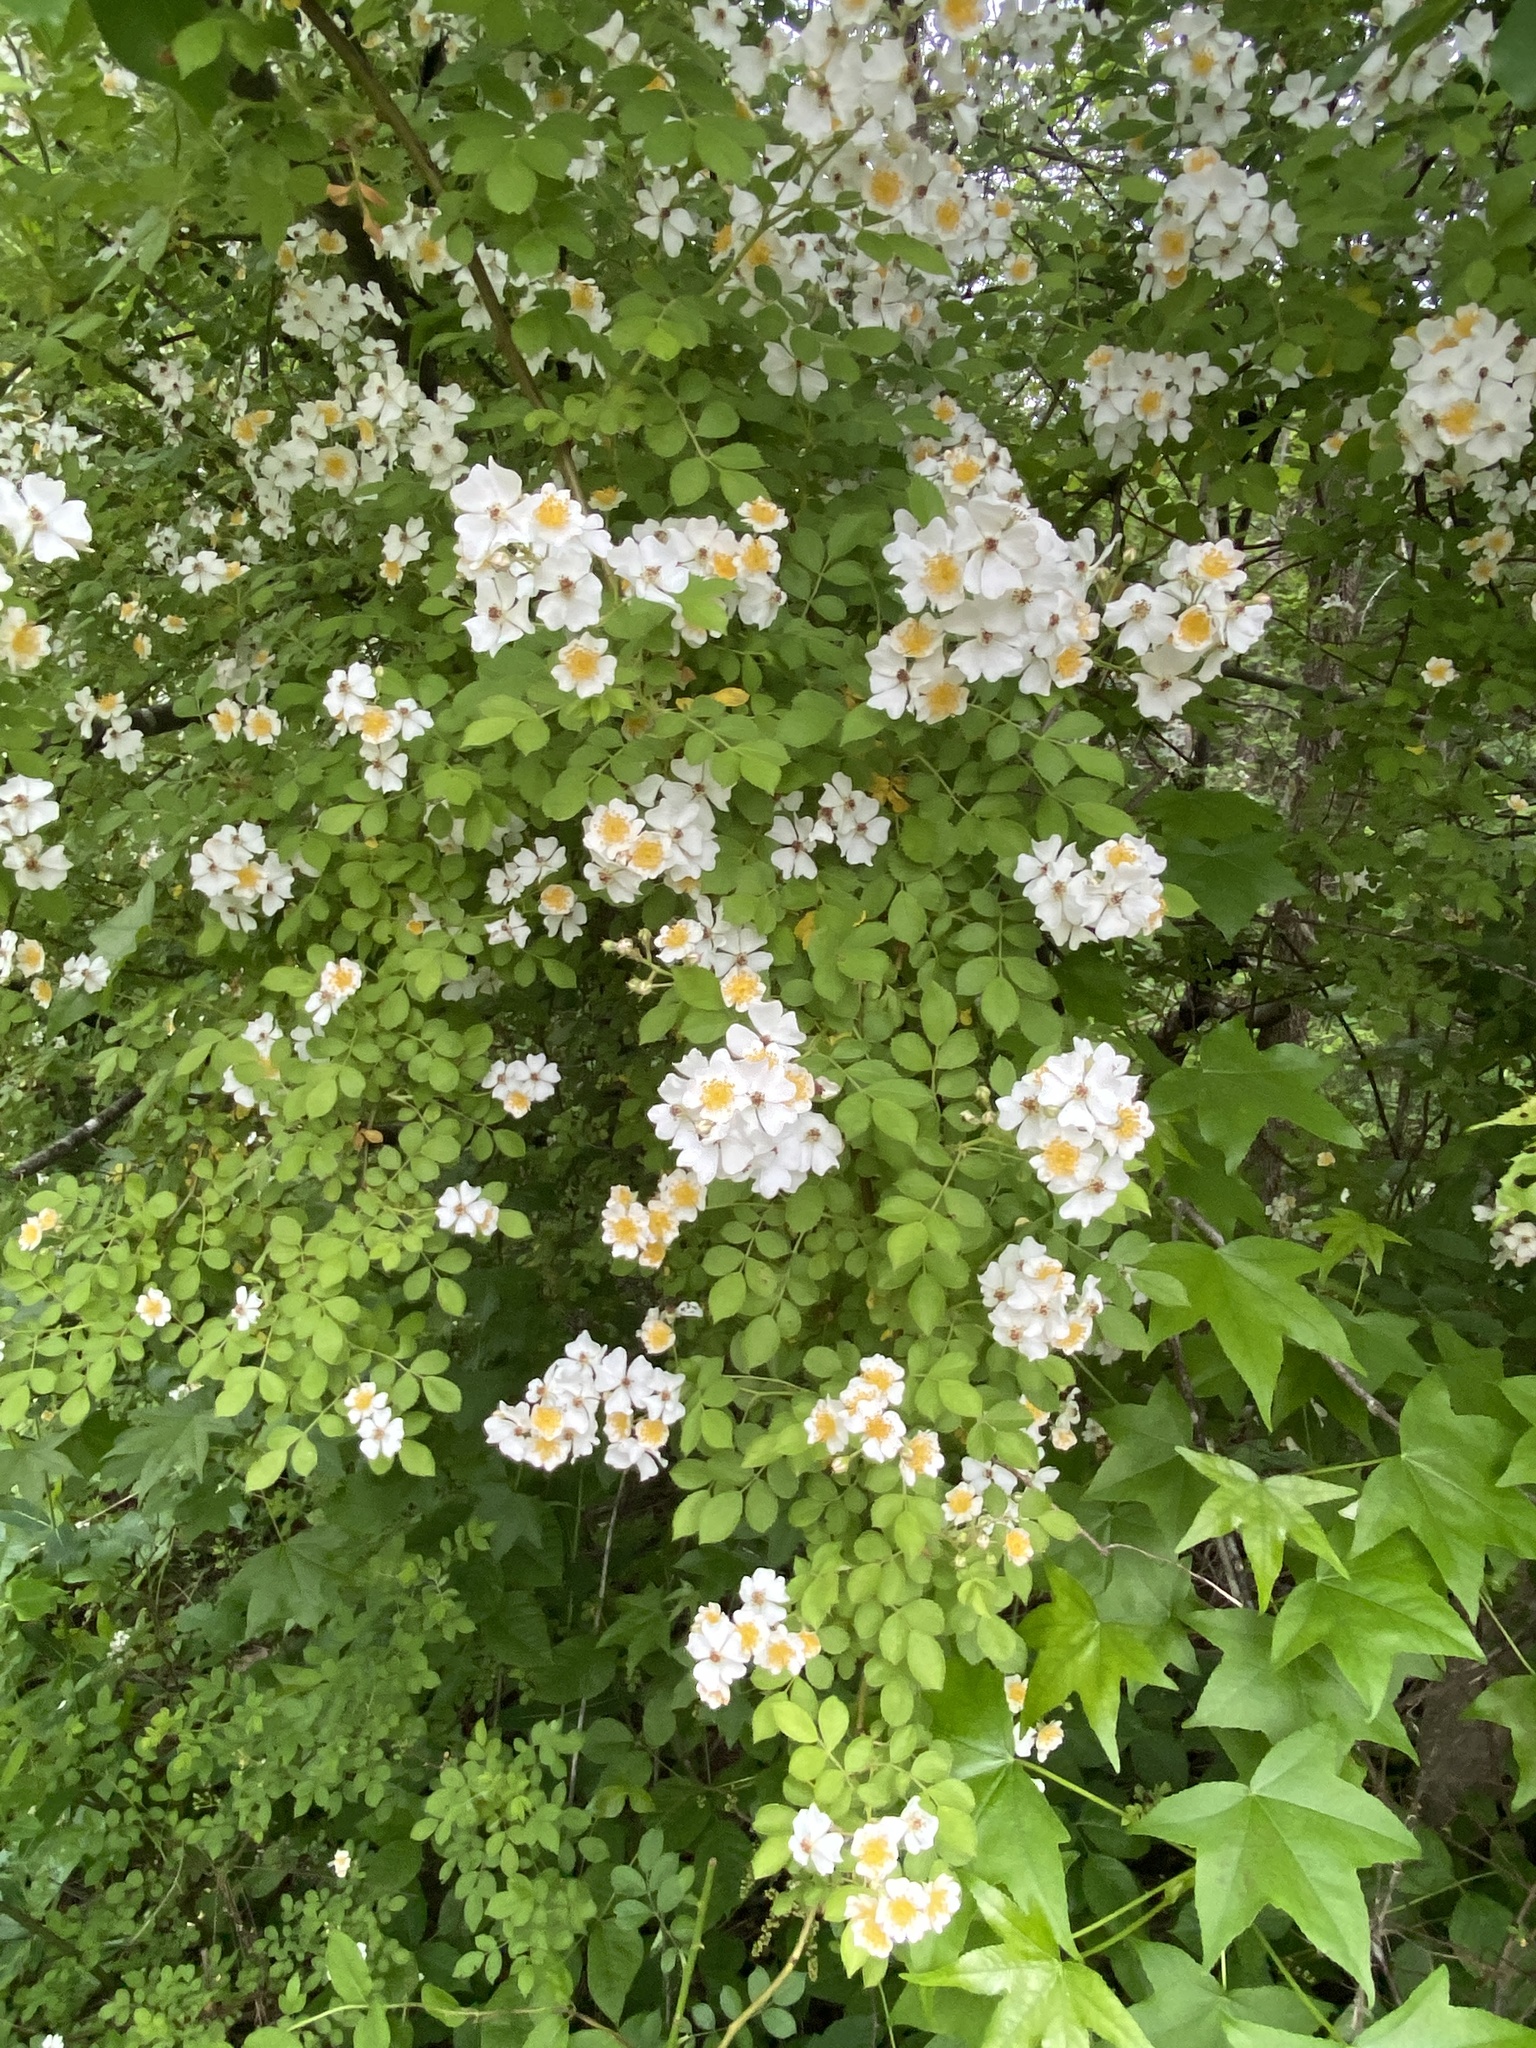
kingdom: Plantae
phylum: Tracheophyta
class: Magnoliopsida
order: Rosales
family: Rosaceae
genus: Rosa
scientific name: Rosa multiflora
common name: Multiflora rose
